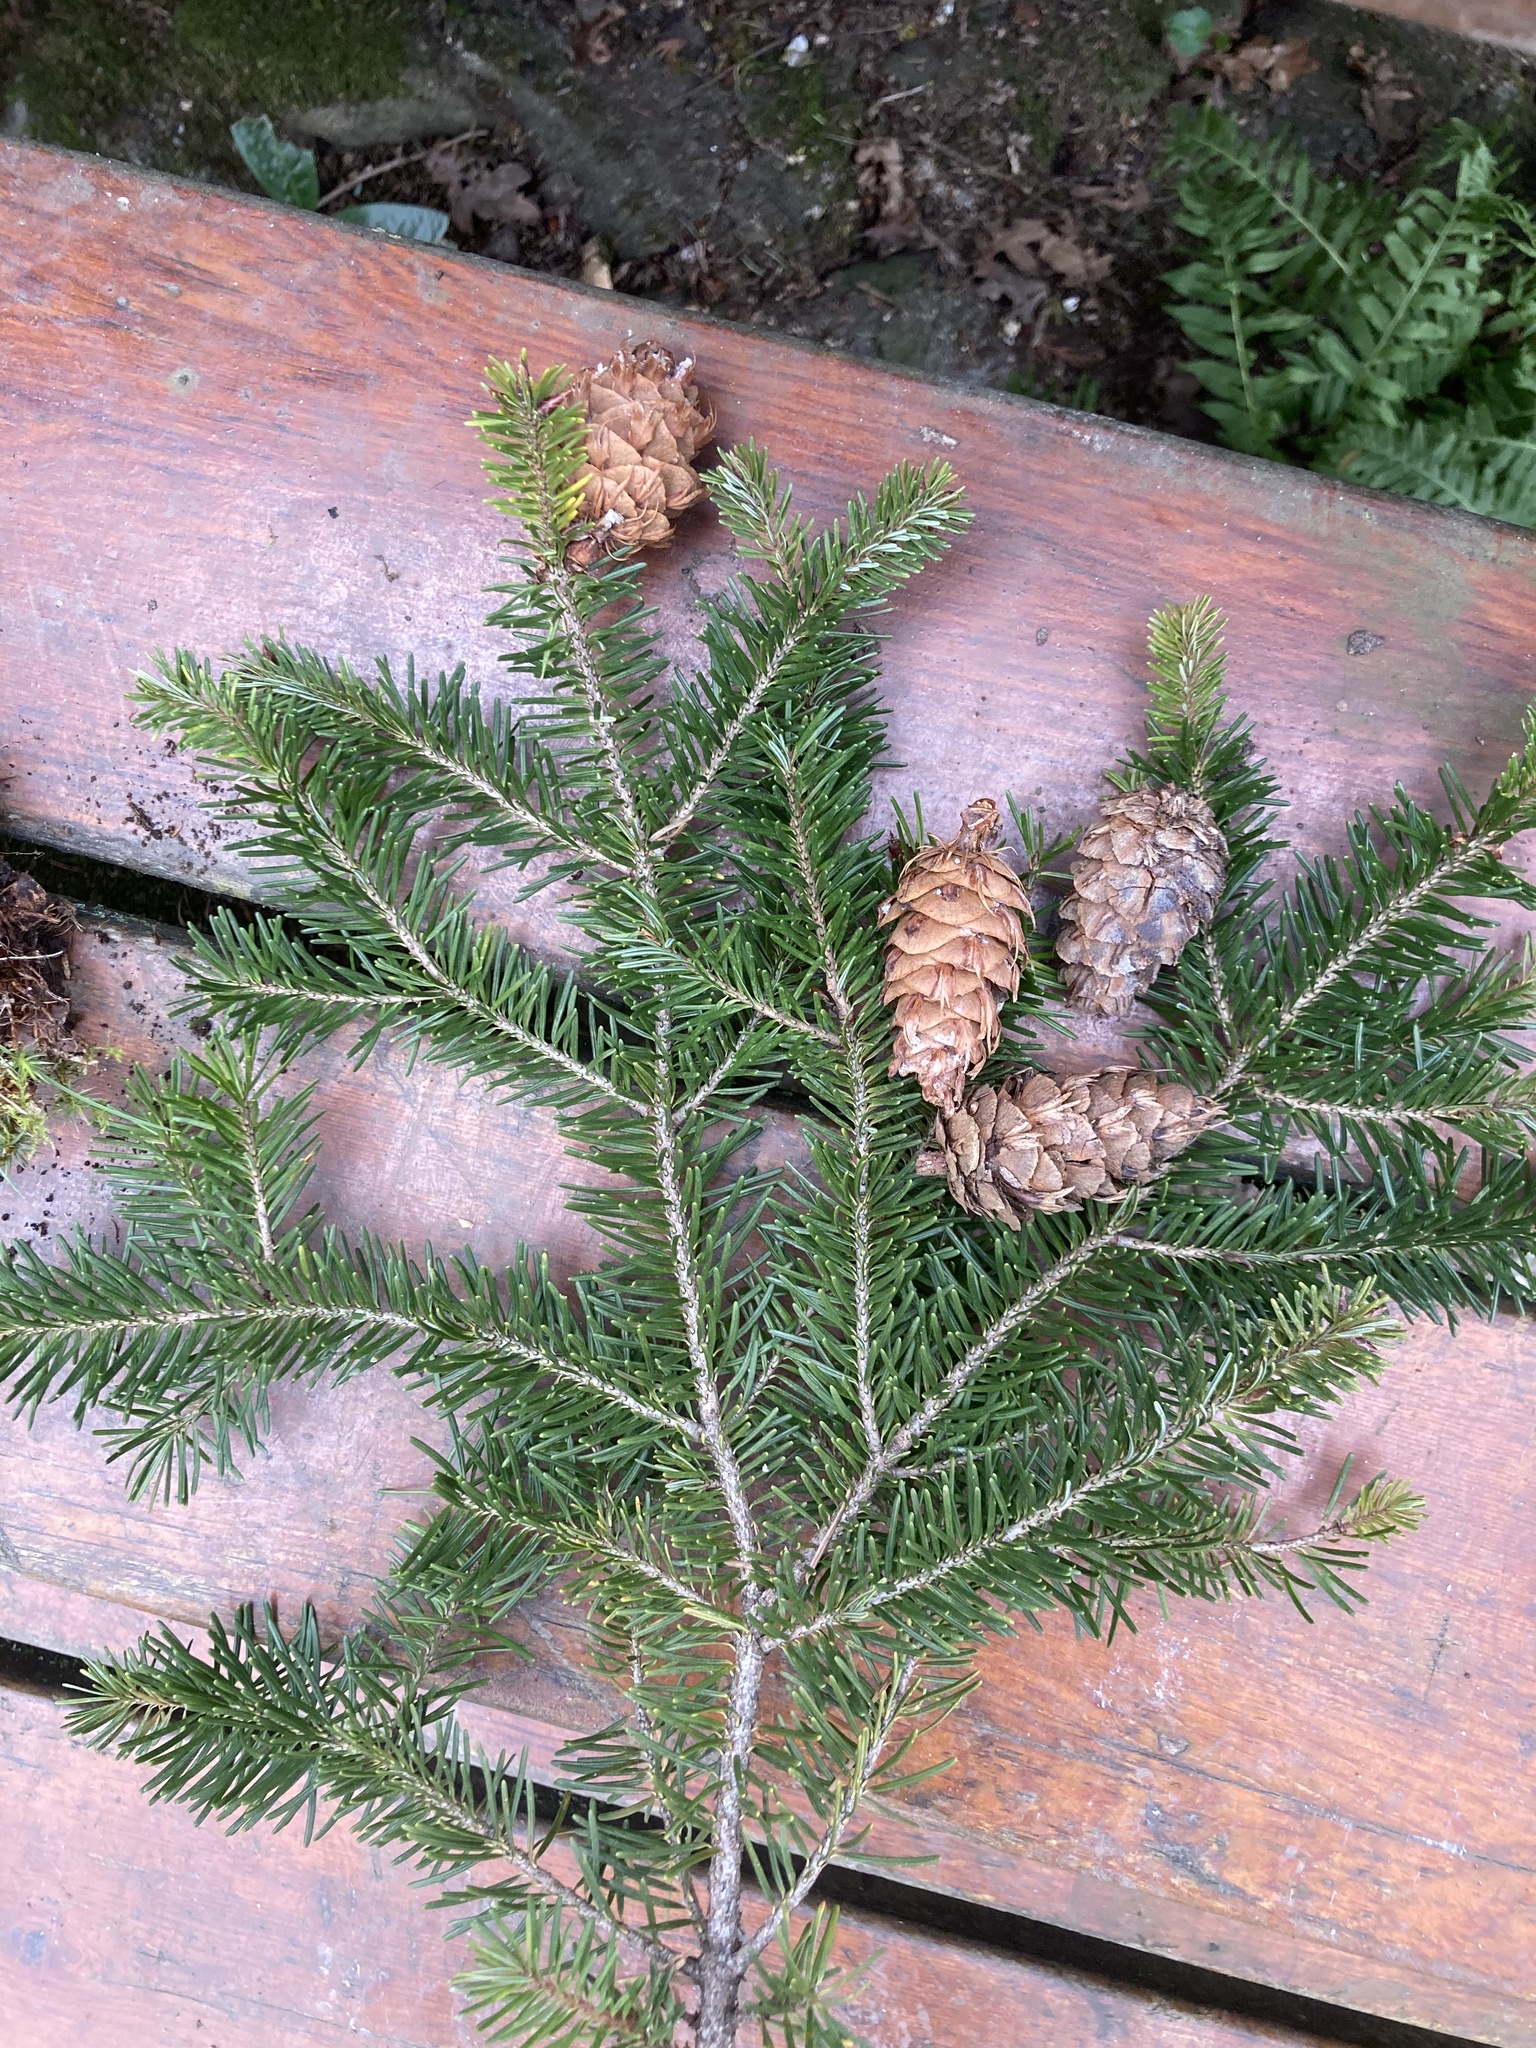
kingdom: Plantae
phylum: Tracheophyta
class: Pinopsida
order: Pinales
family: Pinaceae
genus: Pseudotsuga
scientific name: Pseudotsuga menziesii
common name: Douglas fir
